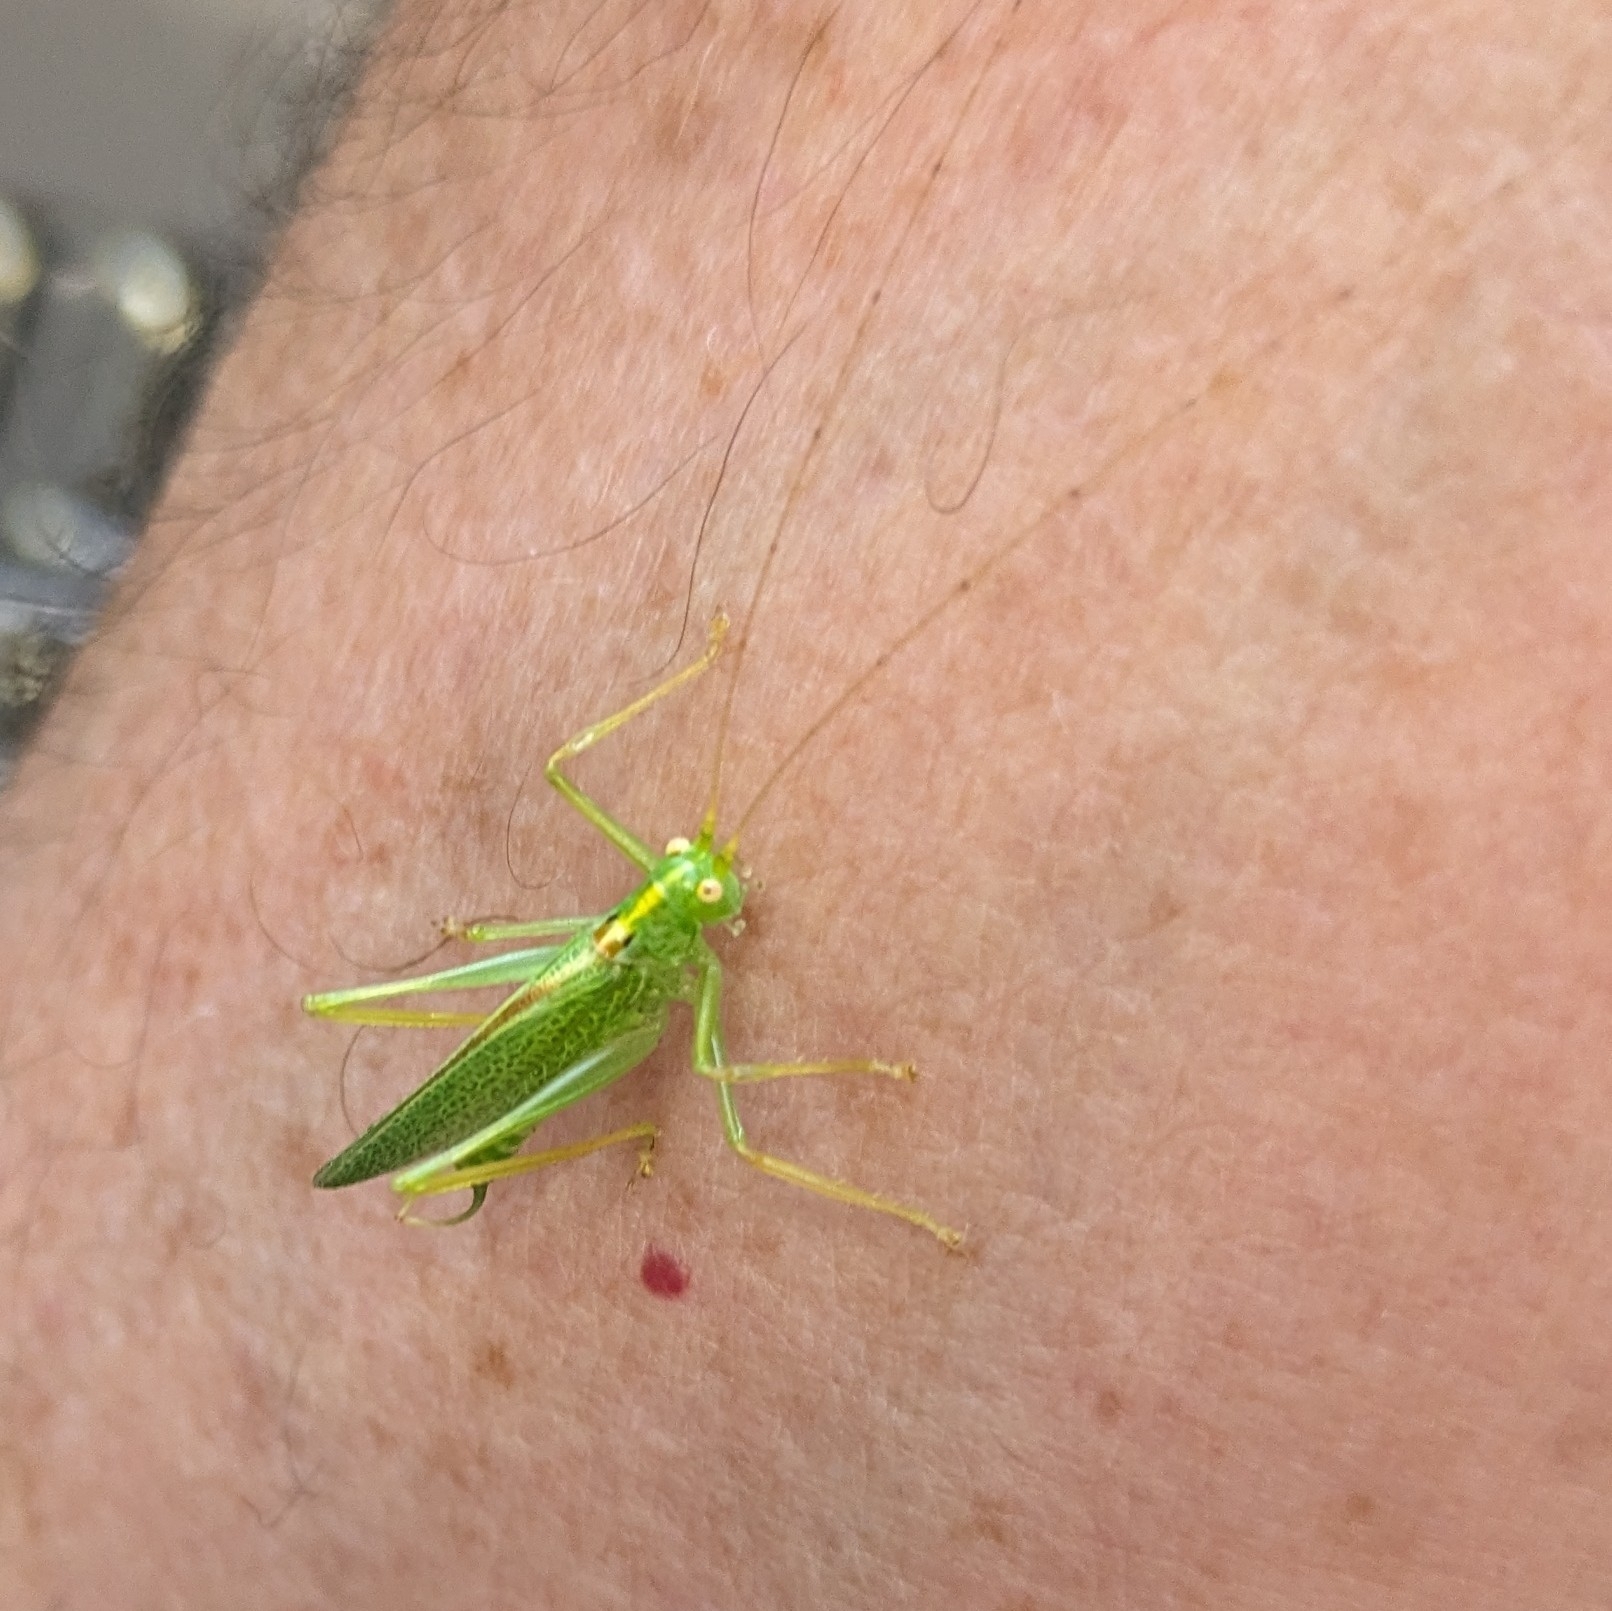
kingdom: Animalia
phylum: Arthropoda
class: Insecta
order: Orthoptera
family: Tettigoniidae
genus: Meconema
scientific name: Meconema thalassinum
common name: Oak bush-cricket
